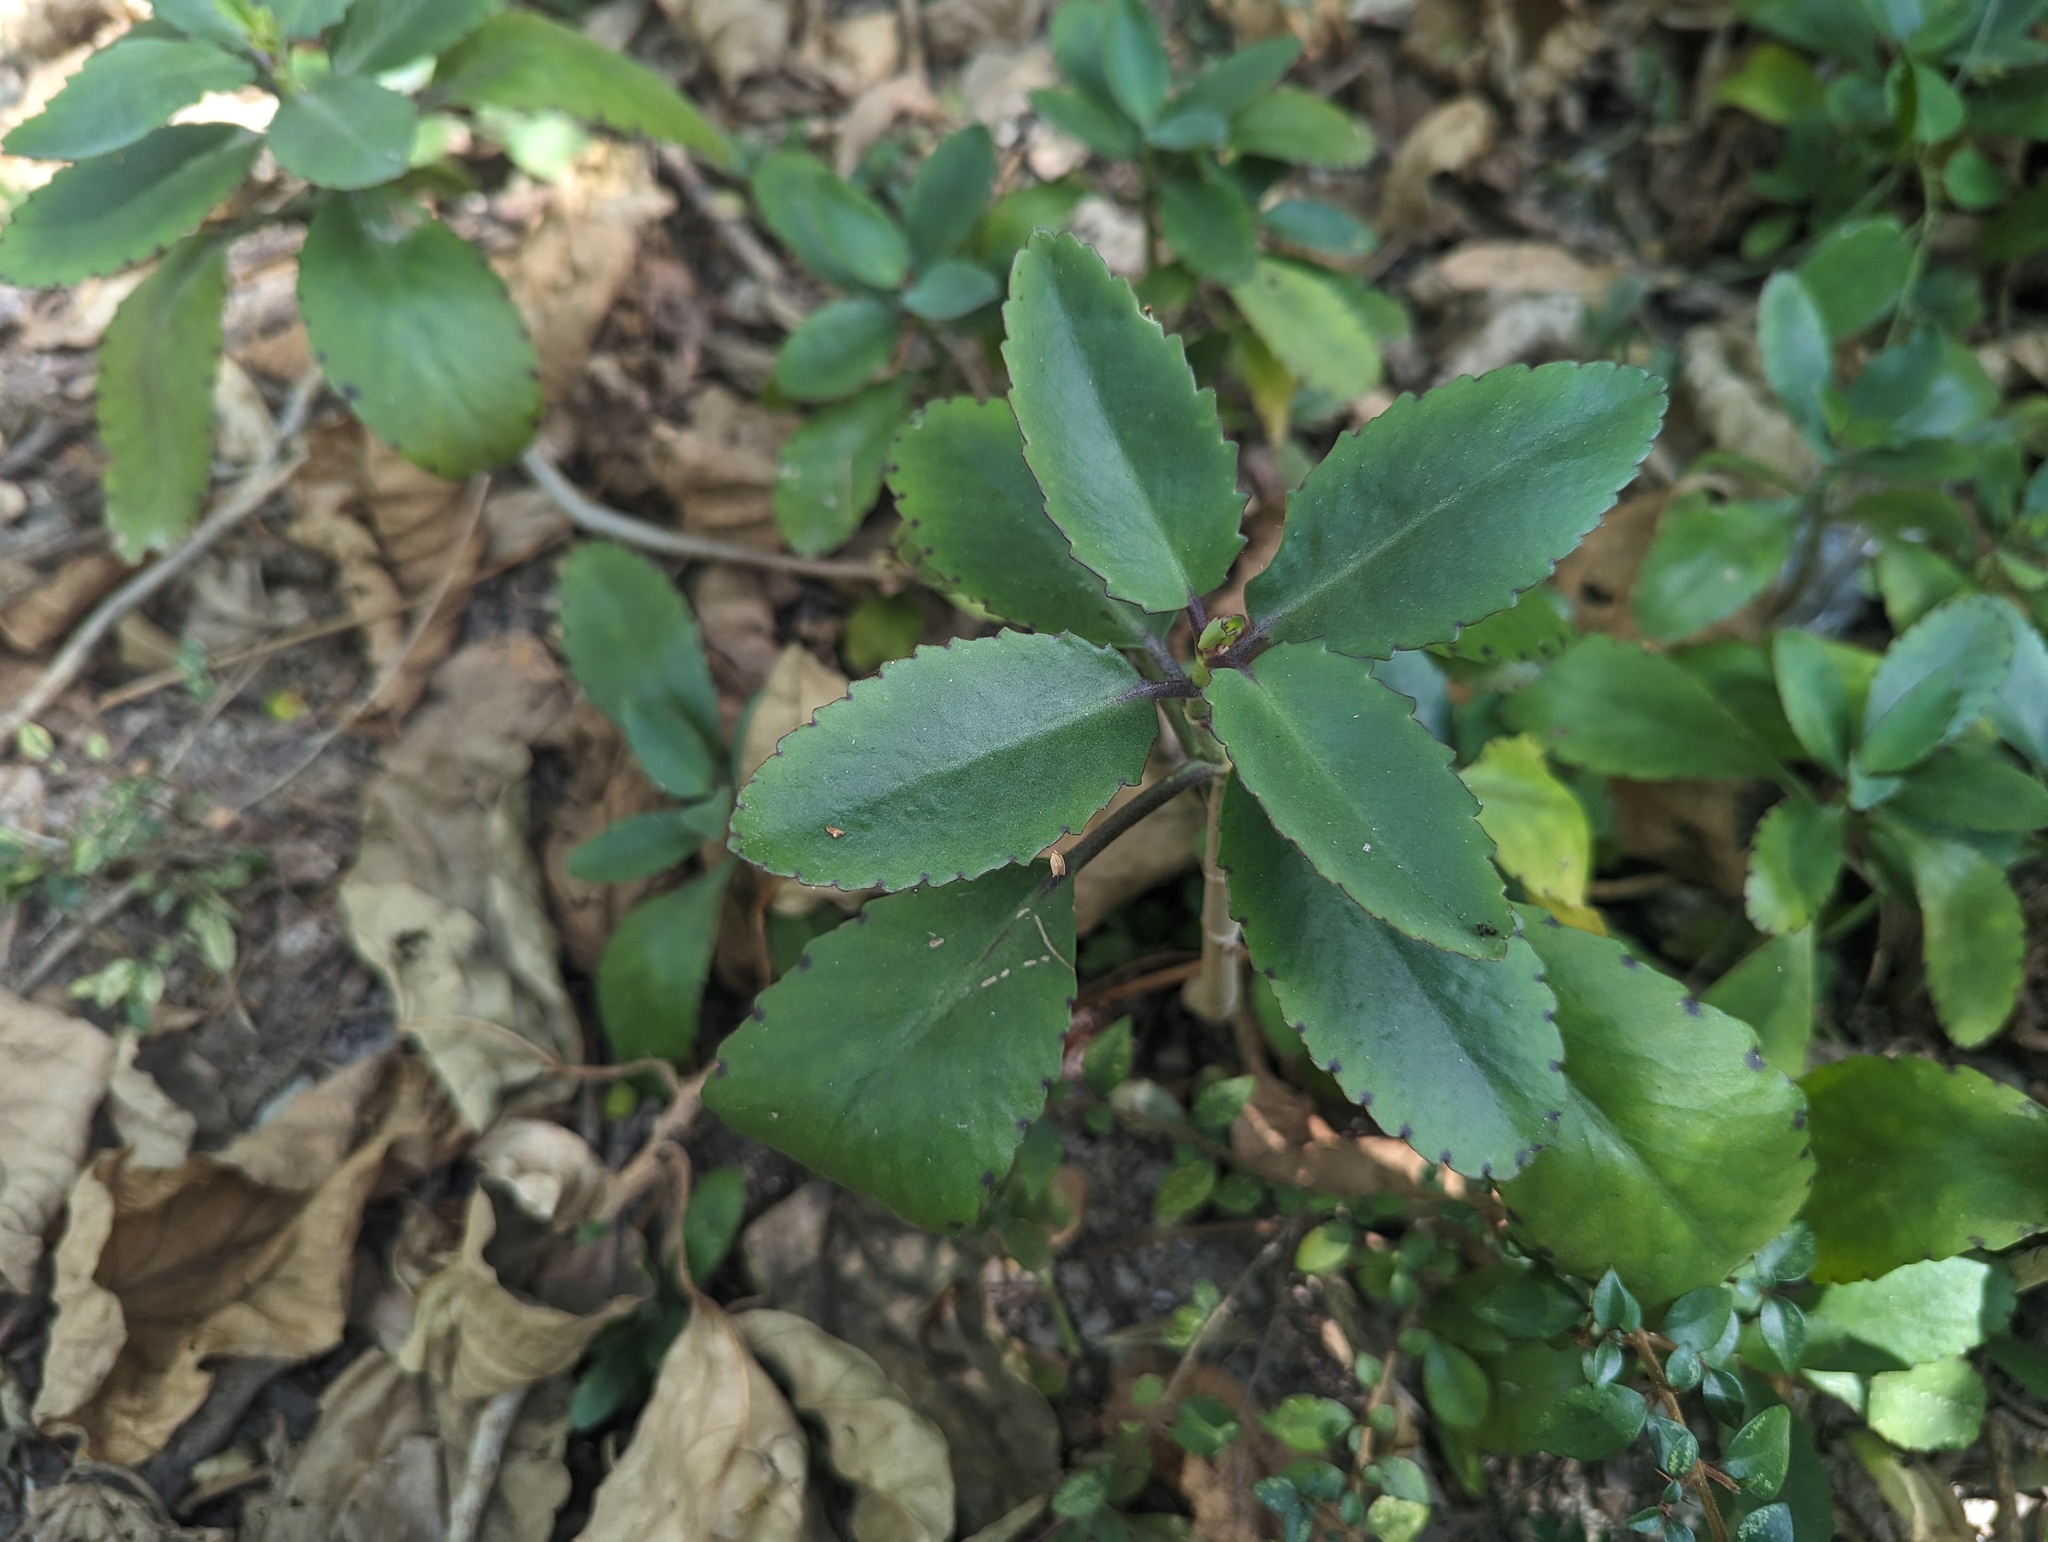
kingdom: Plantae
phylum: Tracheophyta
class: Magnoliopsida
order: Saxifragales
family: Crassulaceae
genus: Kalanchoe
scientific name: Kalanchoe pinnata
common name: Cathedral bells
